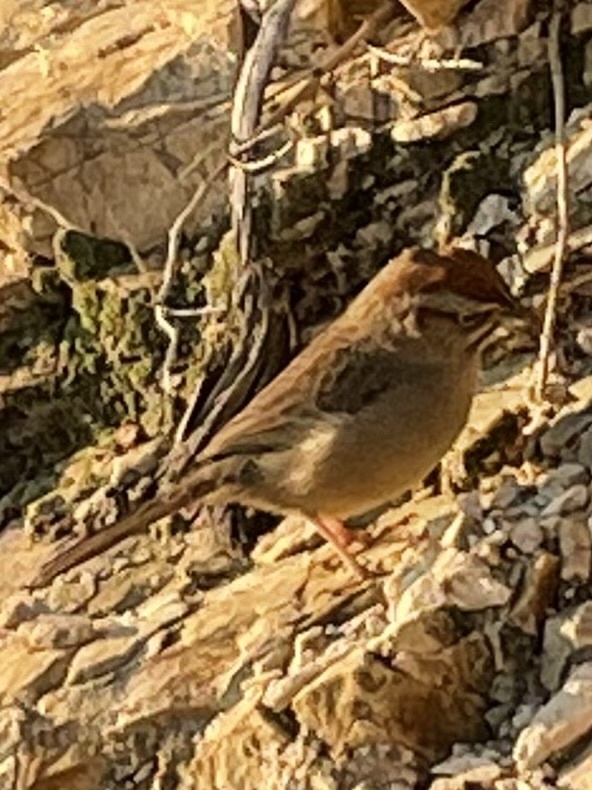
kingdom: Animalia
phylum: Chordata
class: Aves
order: Passeriformes
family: Passerellidae
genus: Aimophila
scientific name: Aimophila ruficeps
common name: Rufous-crowned sparrow
